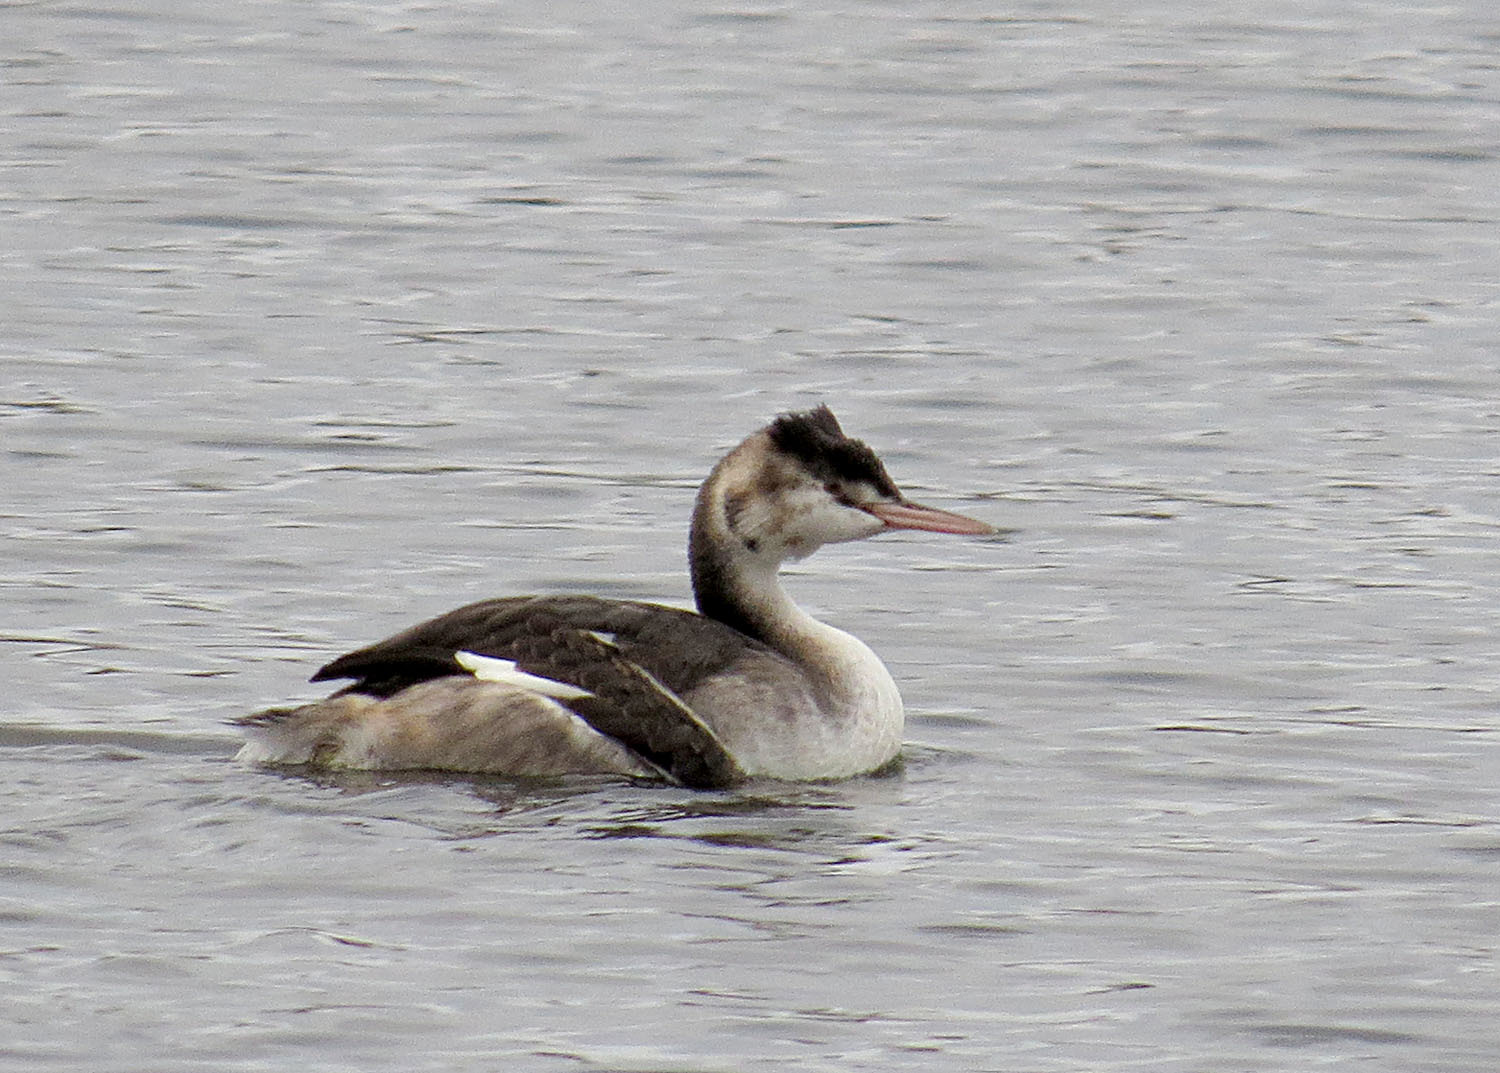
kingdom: Animalia
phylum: Chordata
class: Aves
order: Podicipediformes
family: Podicipedidae
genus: Podiceps
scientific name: Podiceps cristatus
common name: Great crested grebe
